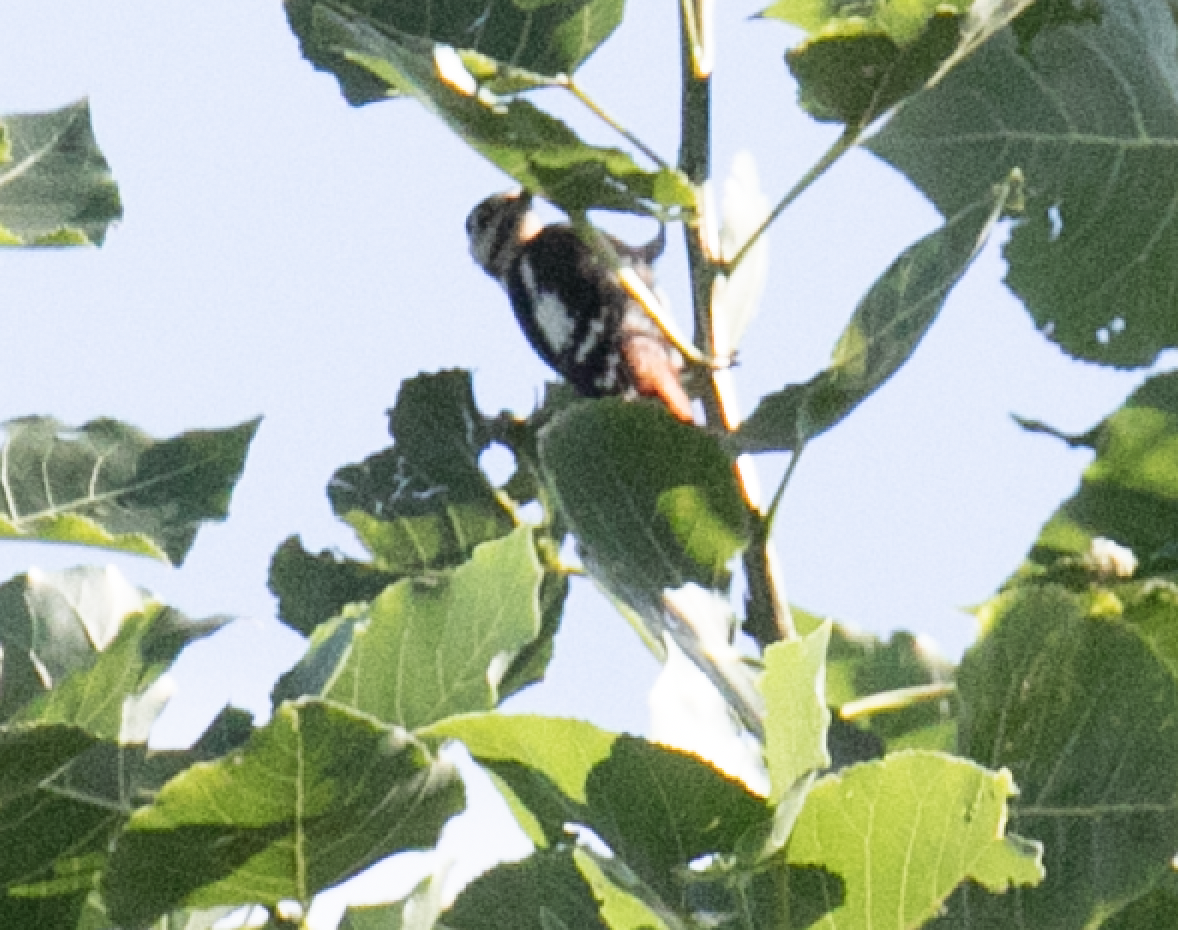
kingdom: Animalia
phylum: Chordata
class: Aves
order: Piciformes
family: Picidae
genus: Dendrocopos
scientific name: Dendrocopos major
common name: Great spotted woodpecker
